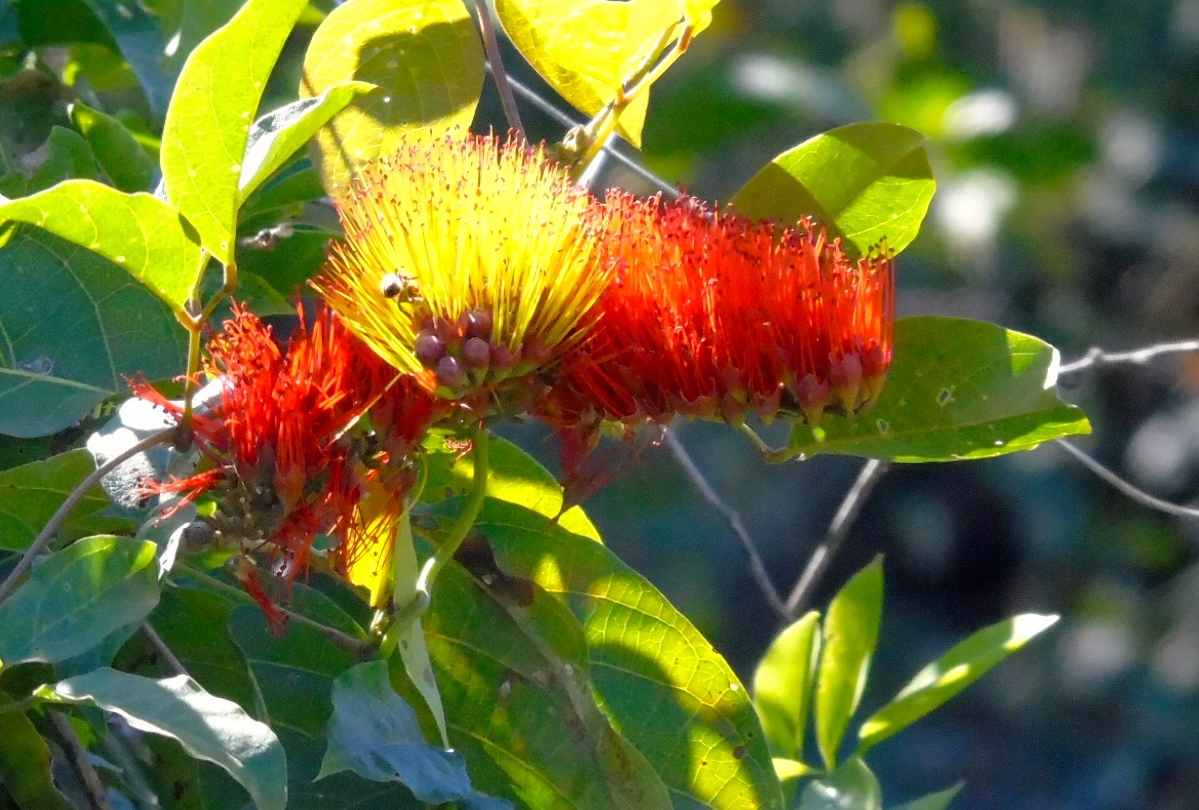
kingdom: Plantae
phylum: Tracheophyta
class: Magnoliopsida
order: Myrtales
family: Combretaceae
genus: Combretum
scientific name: Combretum farinosum
